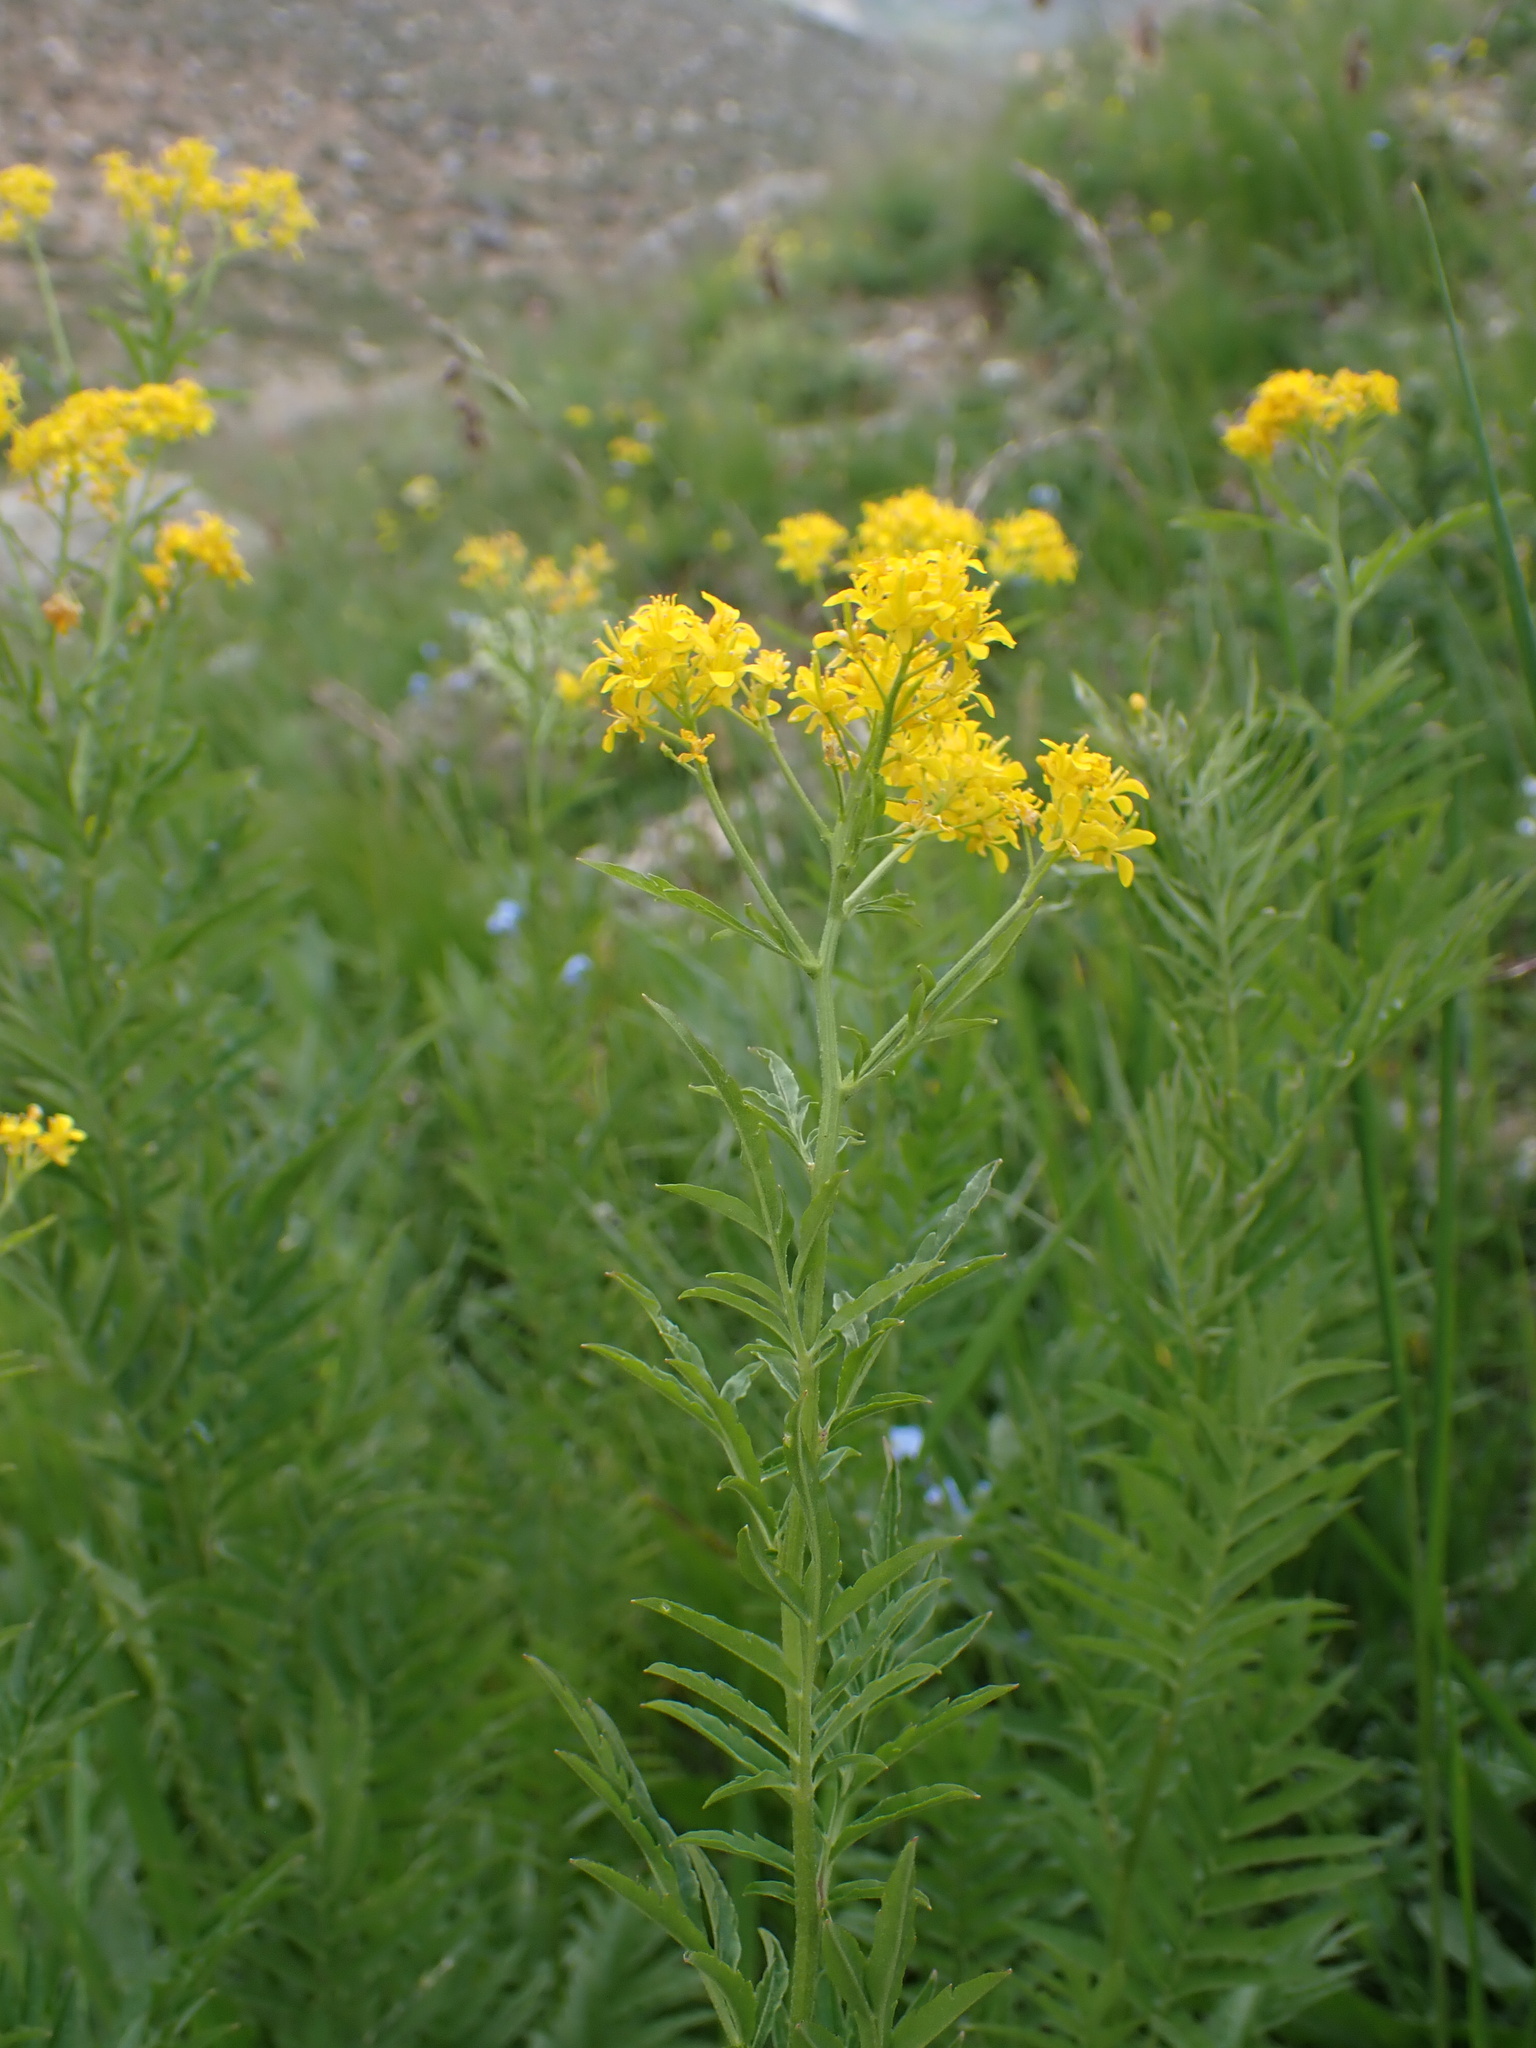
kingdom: Plantae
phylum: Tracheophyta
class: Magnoliopsida
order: Brassicales
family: Brassicaceae
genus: Descurainia
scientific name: Descurainia tanacetifolia
